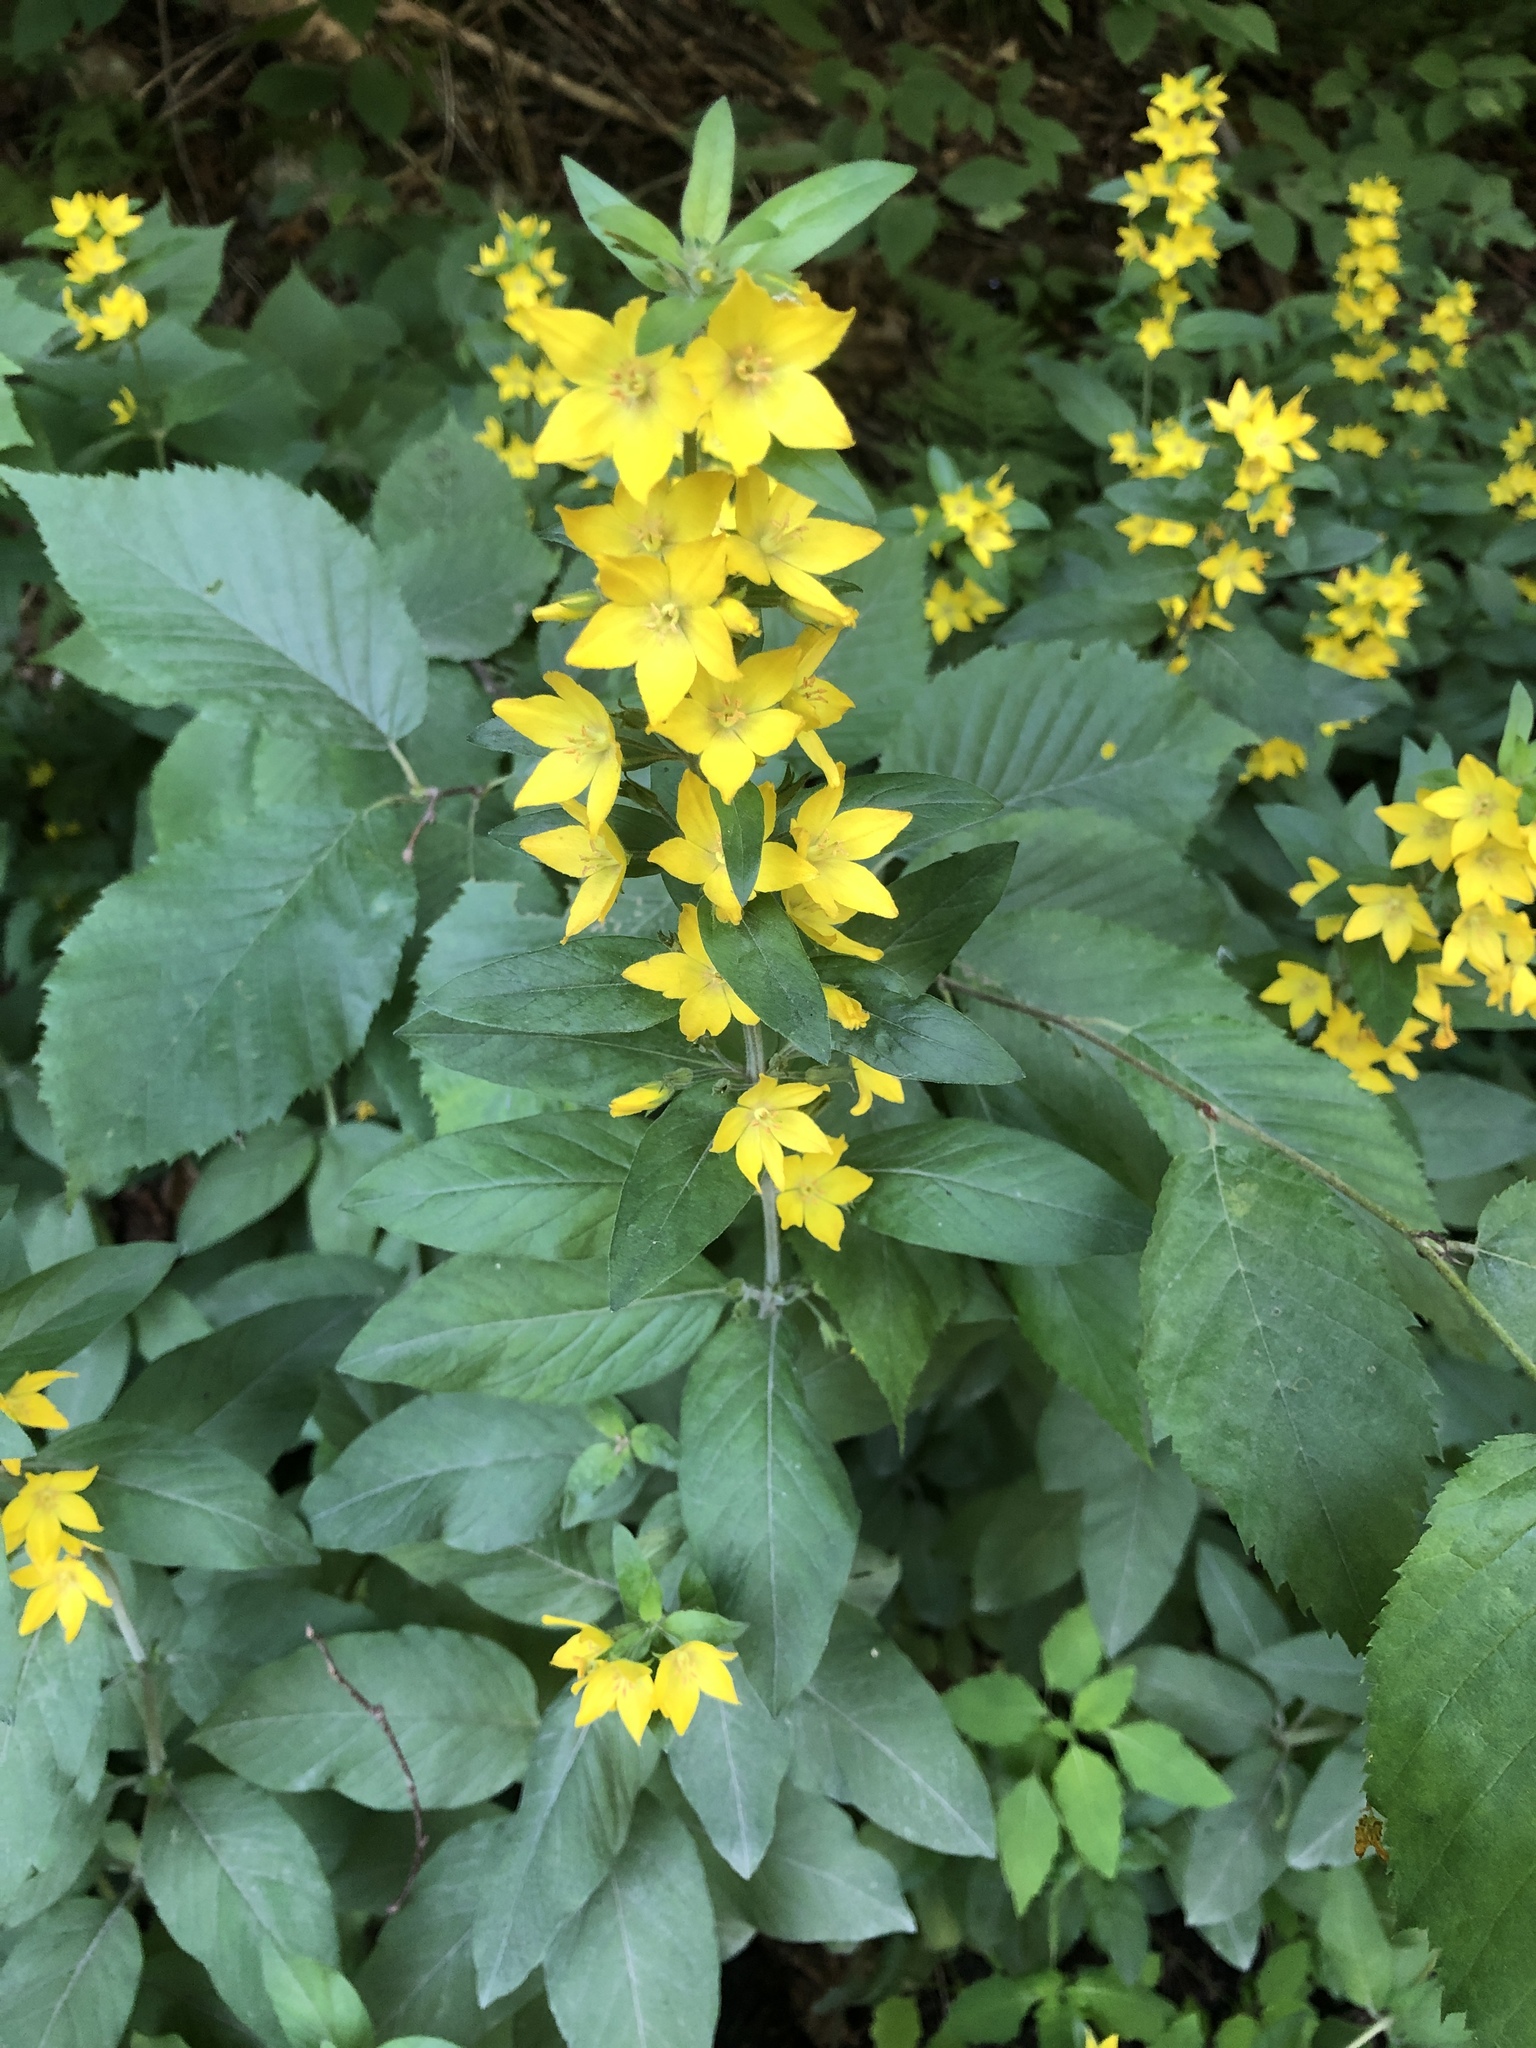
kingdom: Plantae
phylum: Tracheophyta
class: Magnoliopsida
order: Ericales
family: Primulaceae
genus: Lysimachia
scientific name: Lysimachia punctata
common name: Dotted loosestrife
